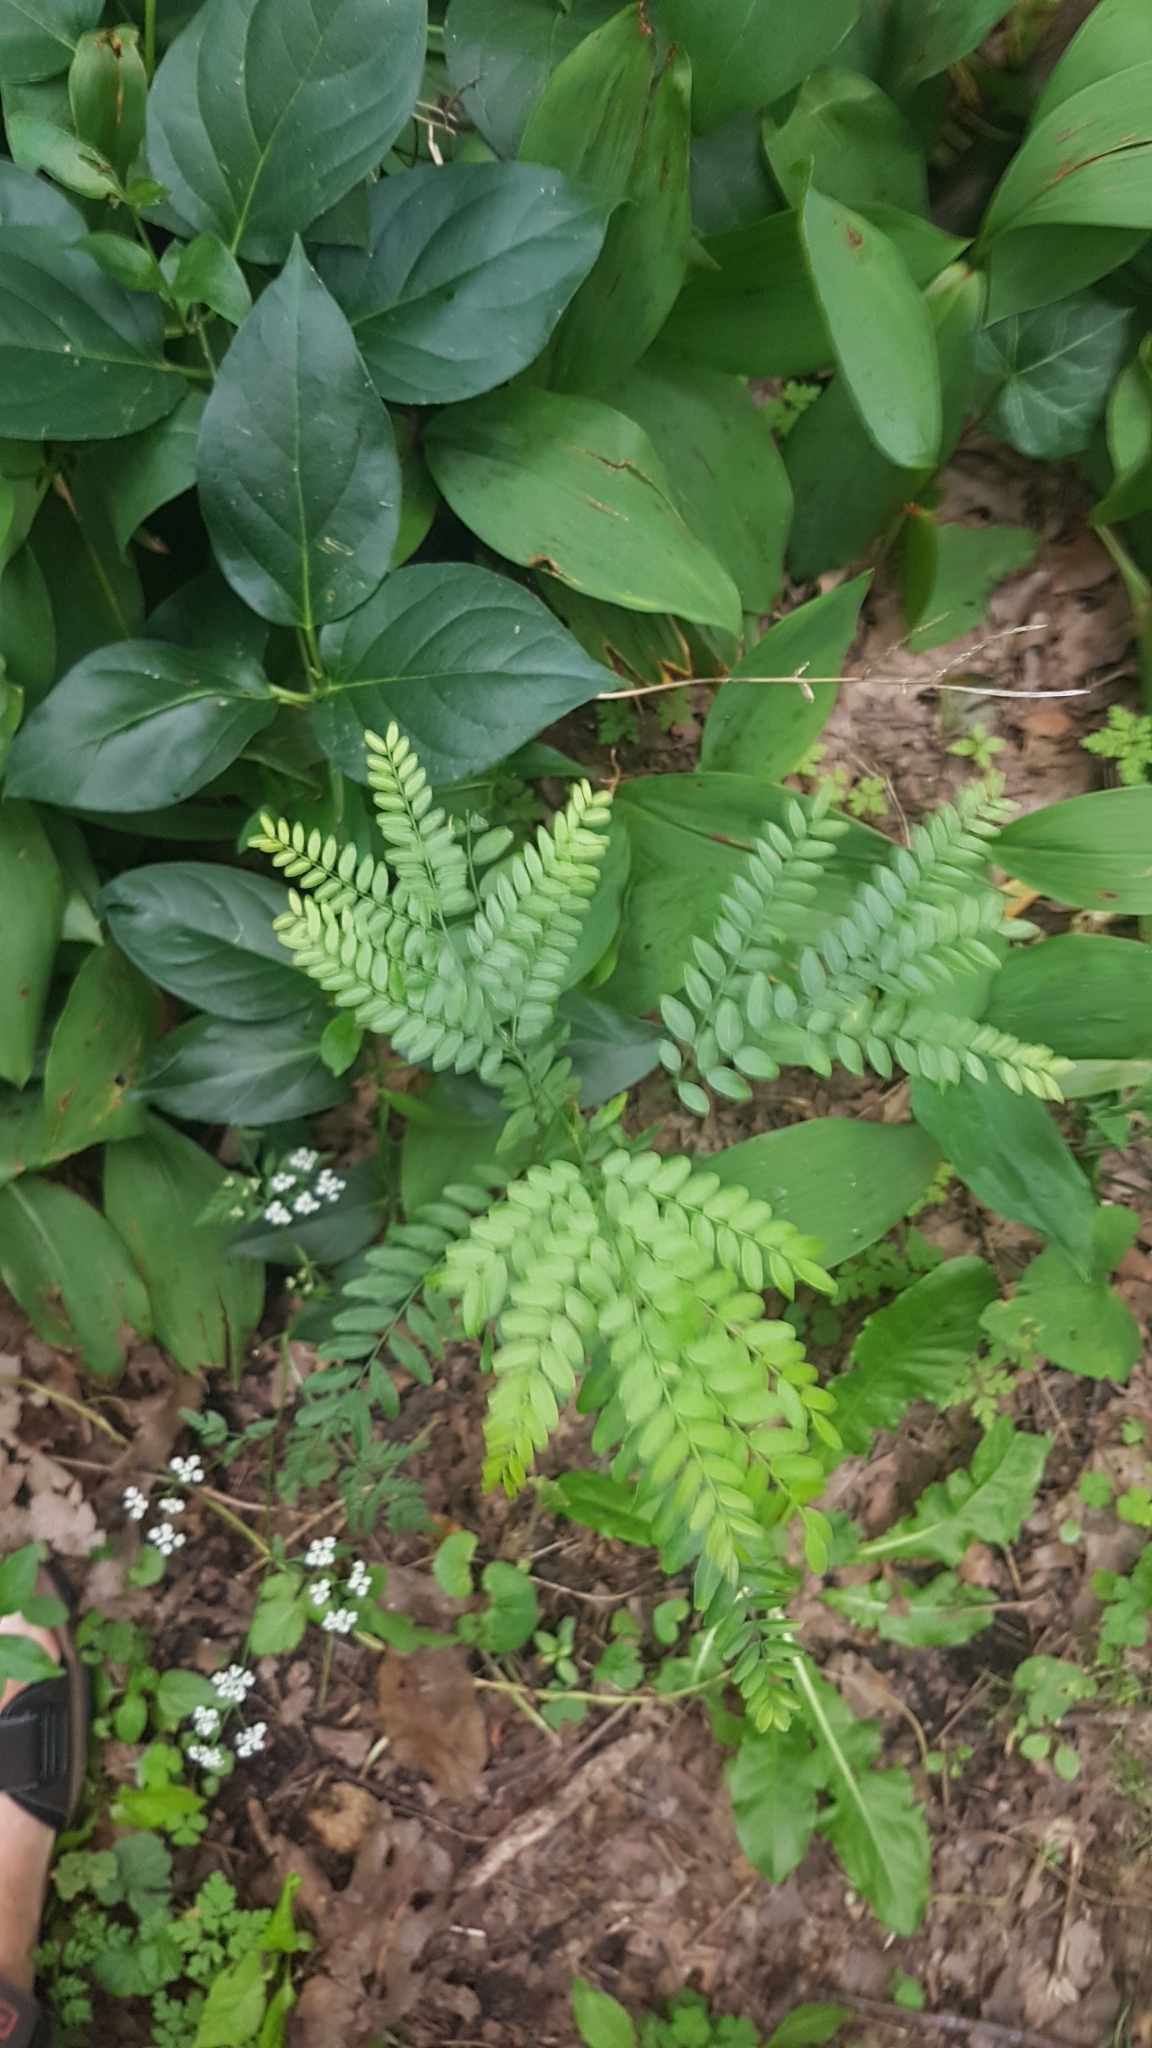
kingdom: Plantae
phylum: Tracheophyta
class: Magnoliopsida
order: Fabales
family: Fabaceae
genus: Gleditsia
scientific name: Gleditsia triacanthos
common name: Common honeylocust
